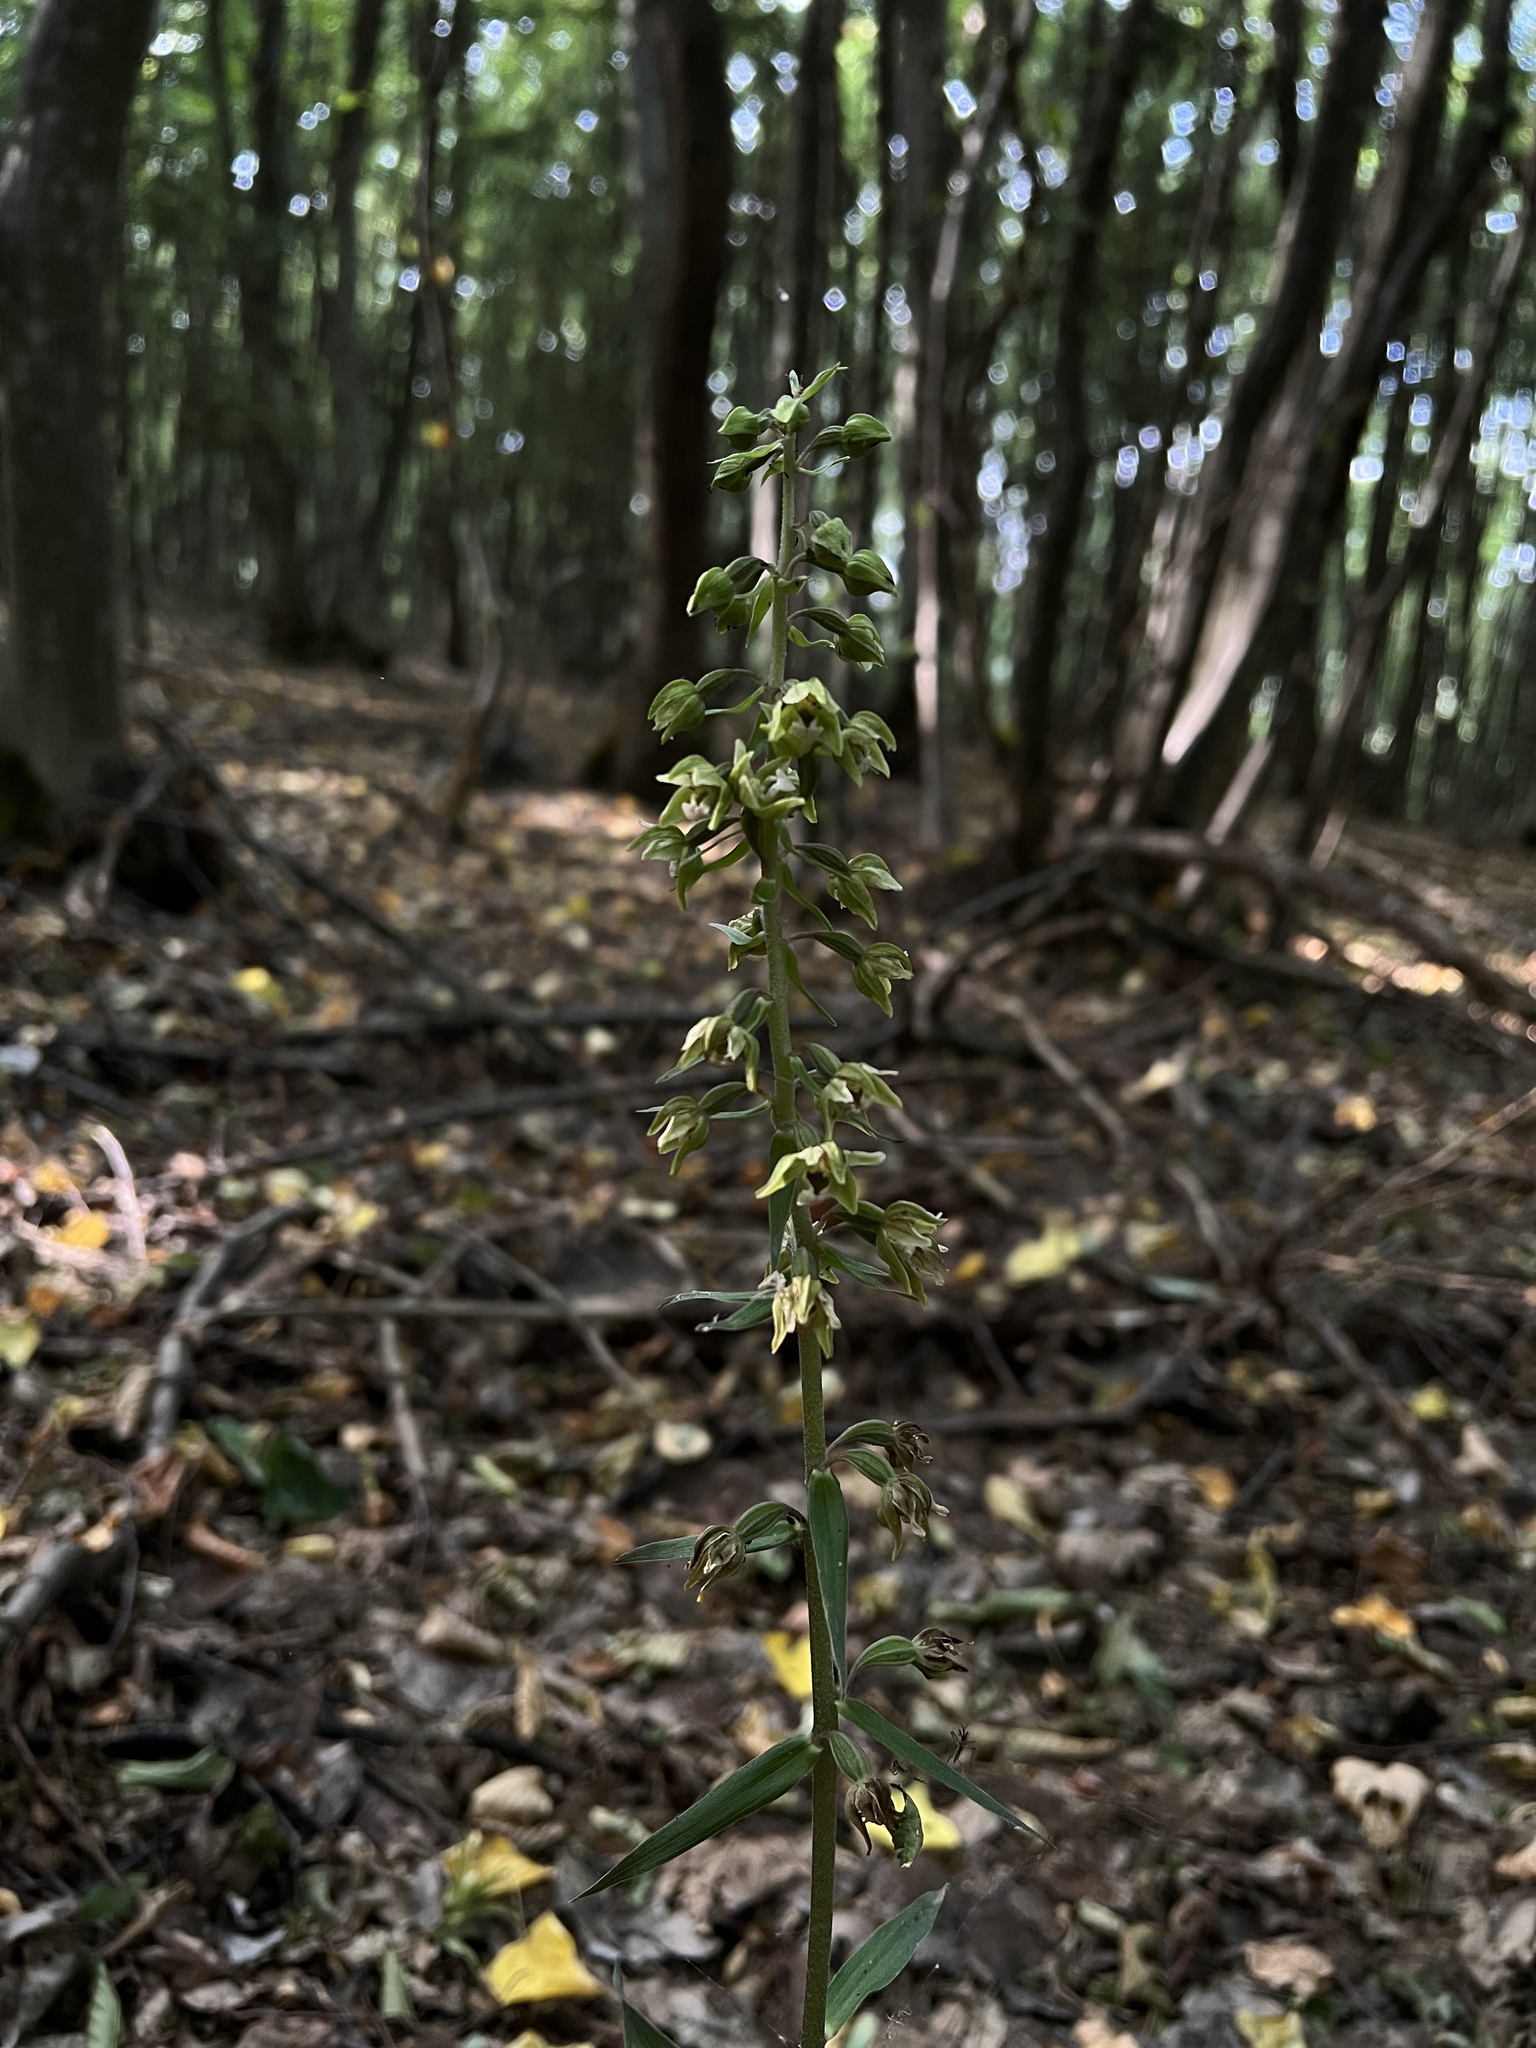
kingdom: Plantae
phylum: Tracheophyta
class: Liliopsida
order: Asparagales
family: Orchidaceae
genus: Epipactis
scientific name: Epipactis purpurata
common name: Violet helleborine
